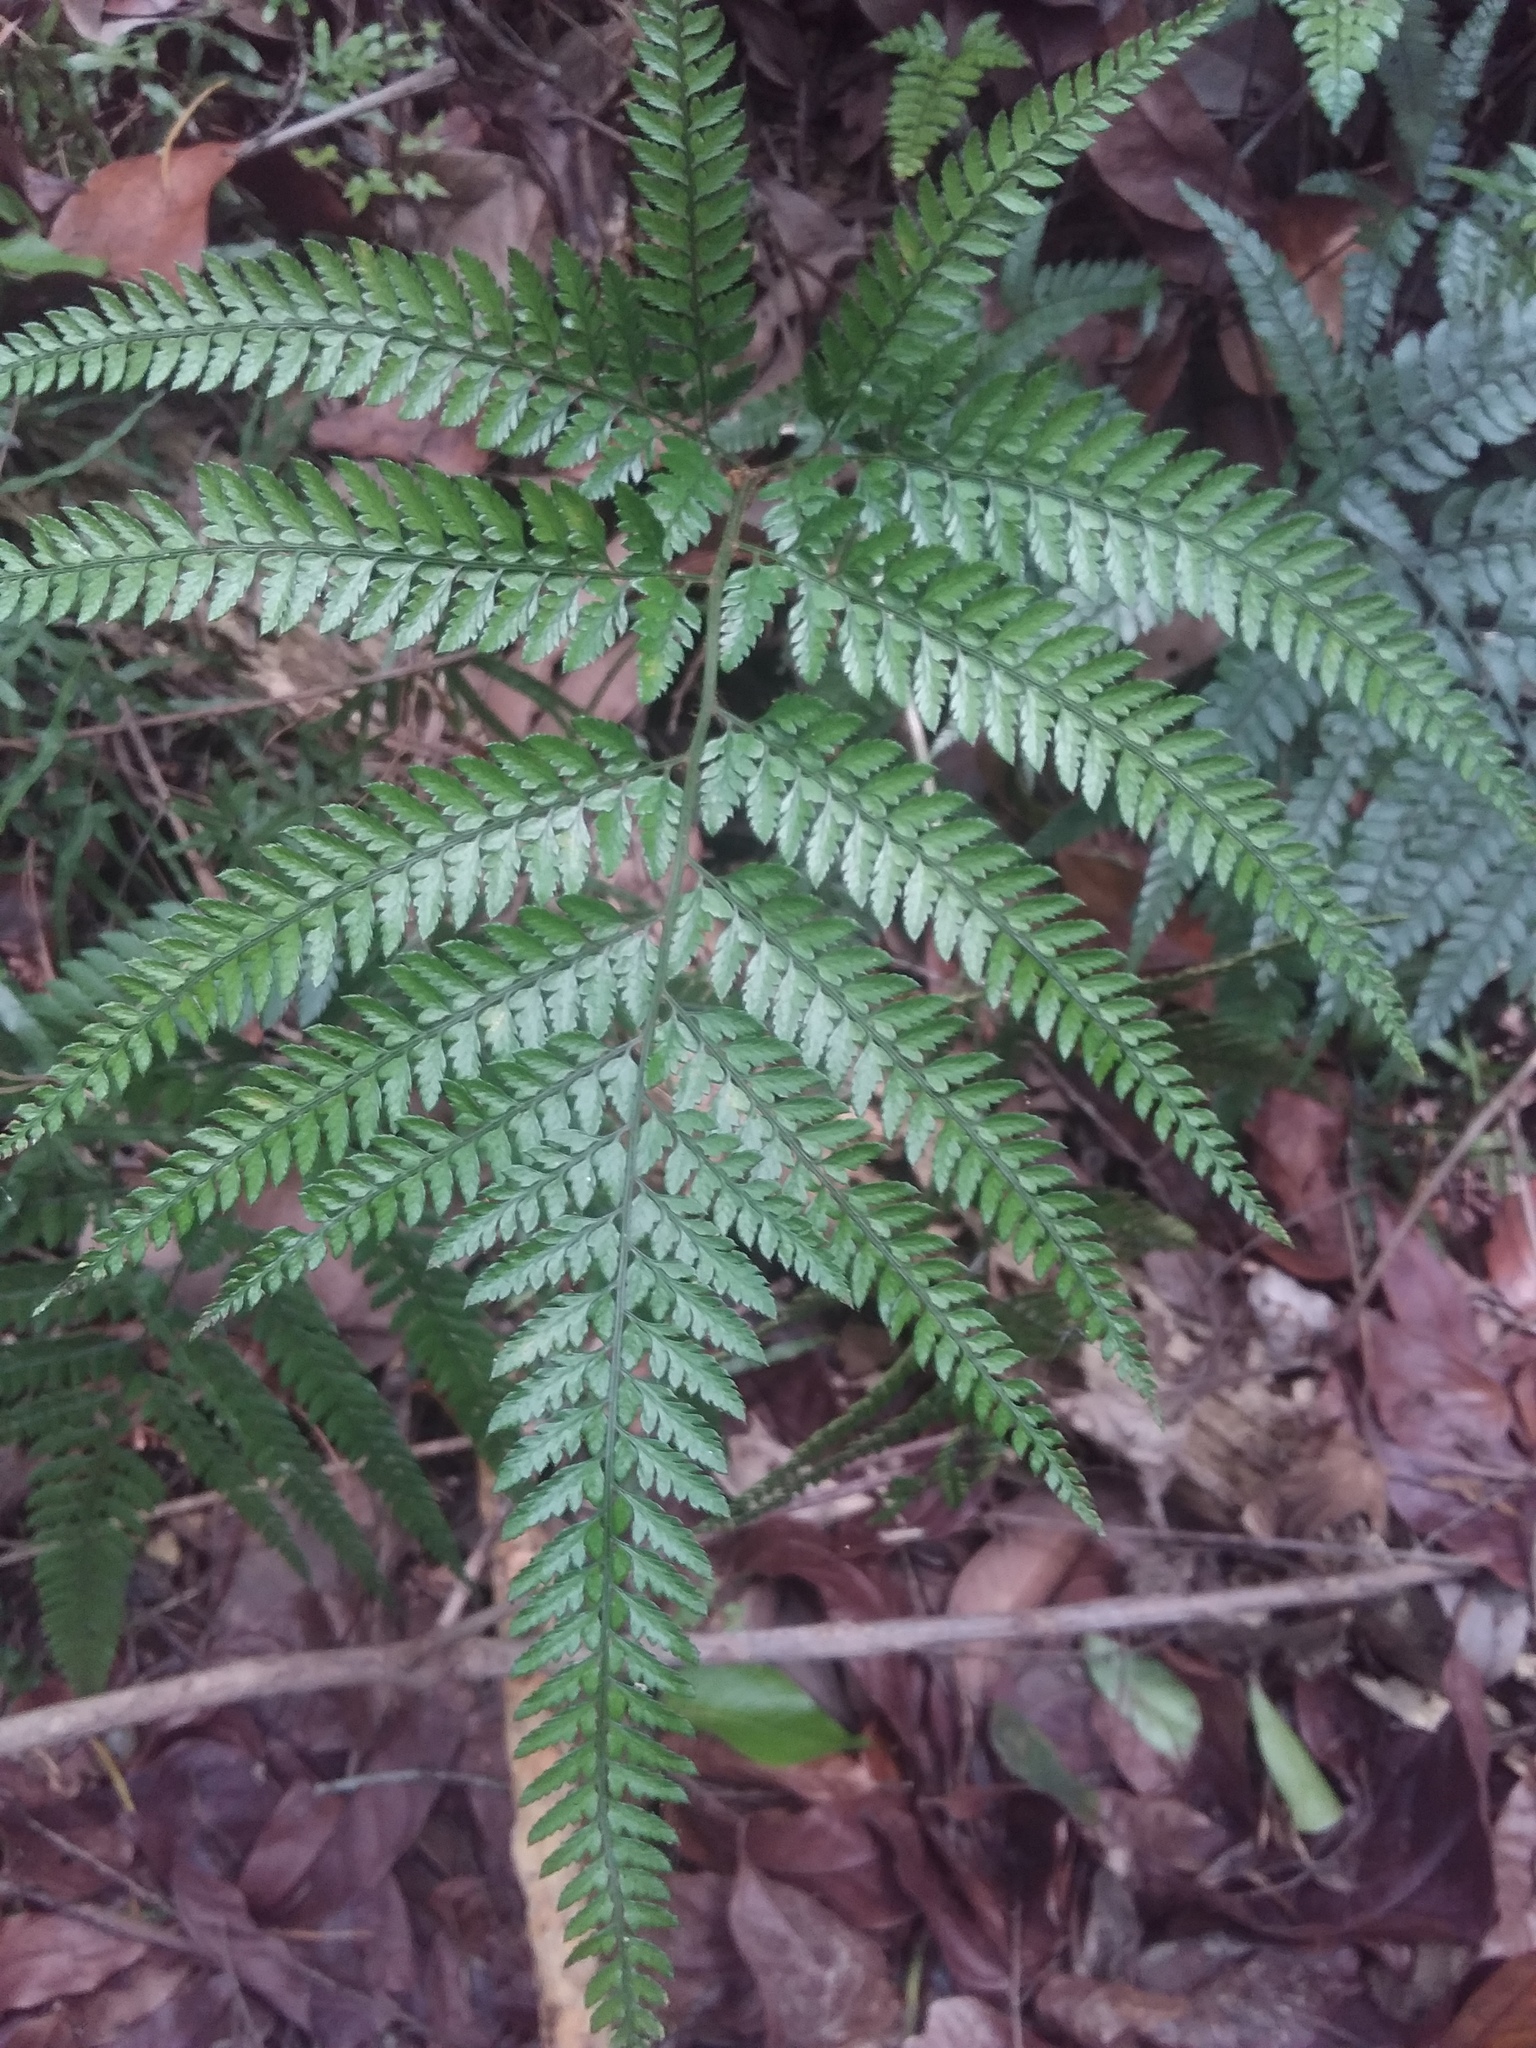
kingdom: Plantae
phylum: Tracheophyta
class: Polypodiopsida
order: Polypodiales
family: Dryopteridaceae
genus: Arachniodes
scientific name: Arachniodes rhomboidea
